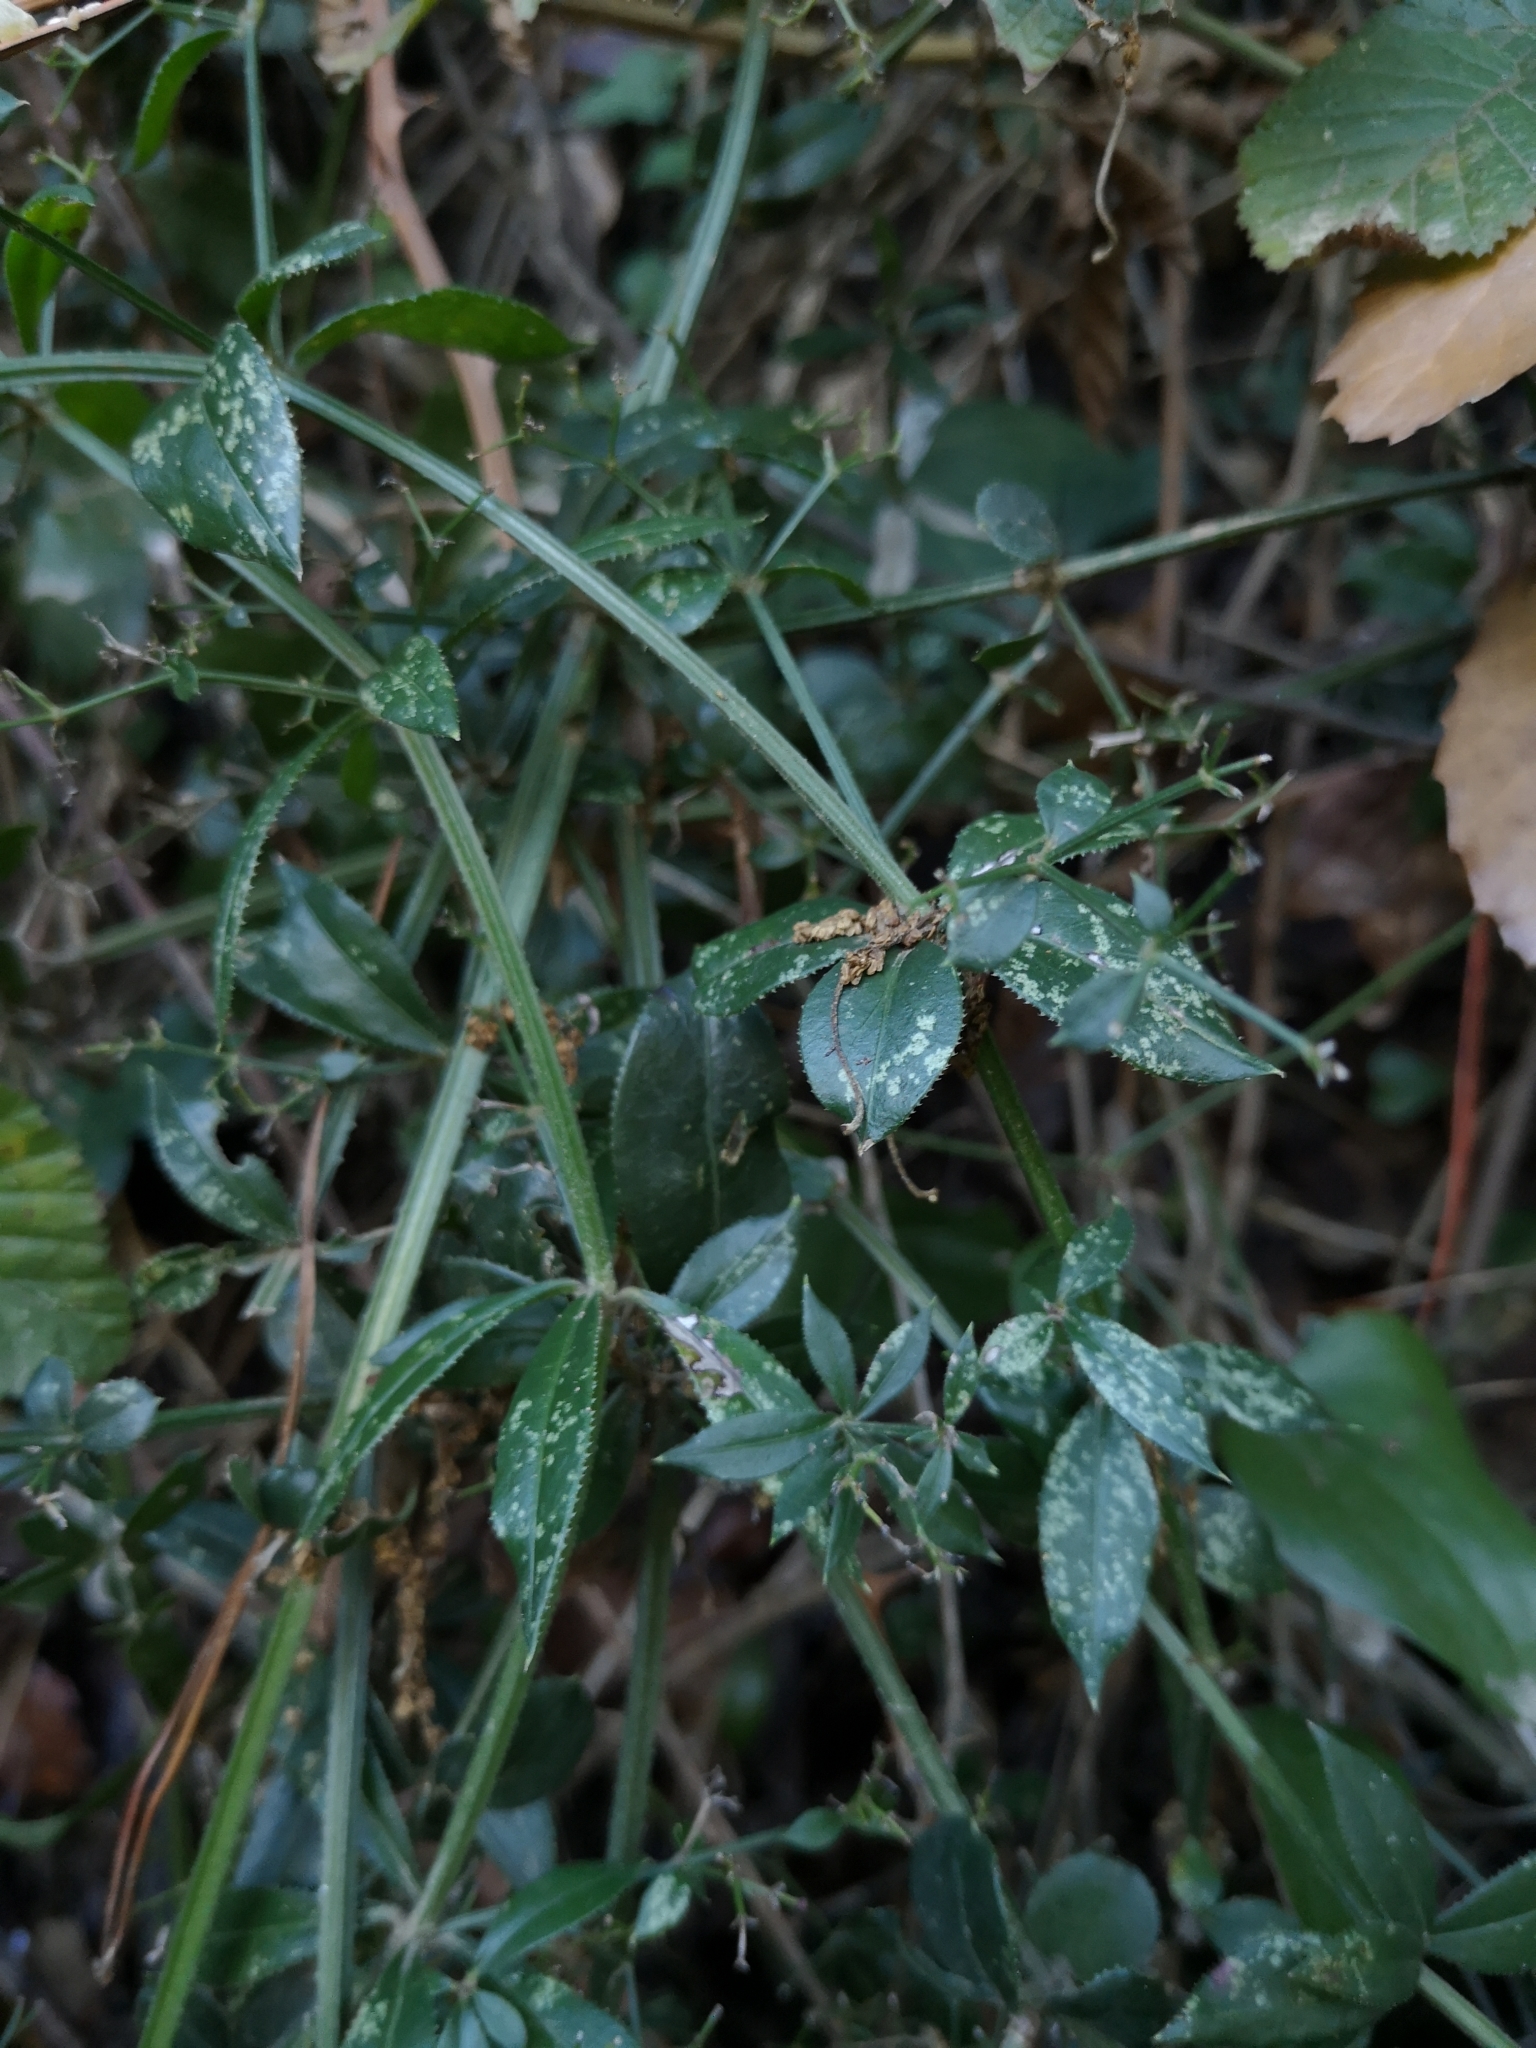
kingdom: Plantae
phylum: Tracheophyta
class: Magnoliopsida
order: Gentianales
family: Rubiaceae
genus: Rubia
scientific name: Rubia peregrina
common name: Wild madder
